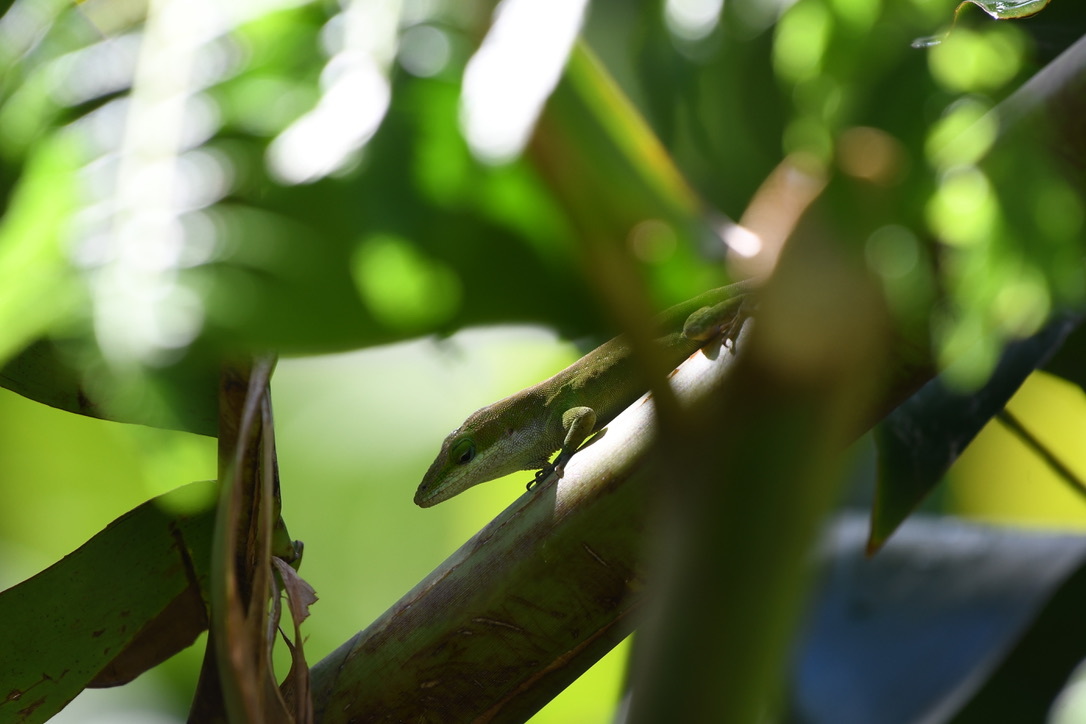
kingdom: Animalia
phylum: Chordata
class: Squamata
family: Dactyloidae
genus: Anolis
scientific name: Anolis carolinensis
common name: Green anole
